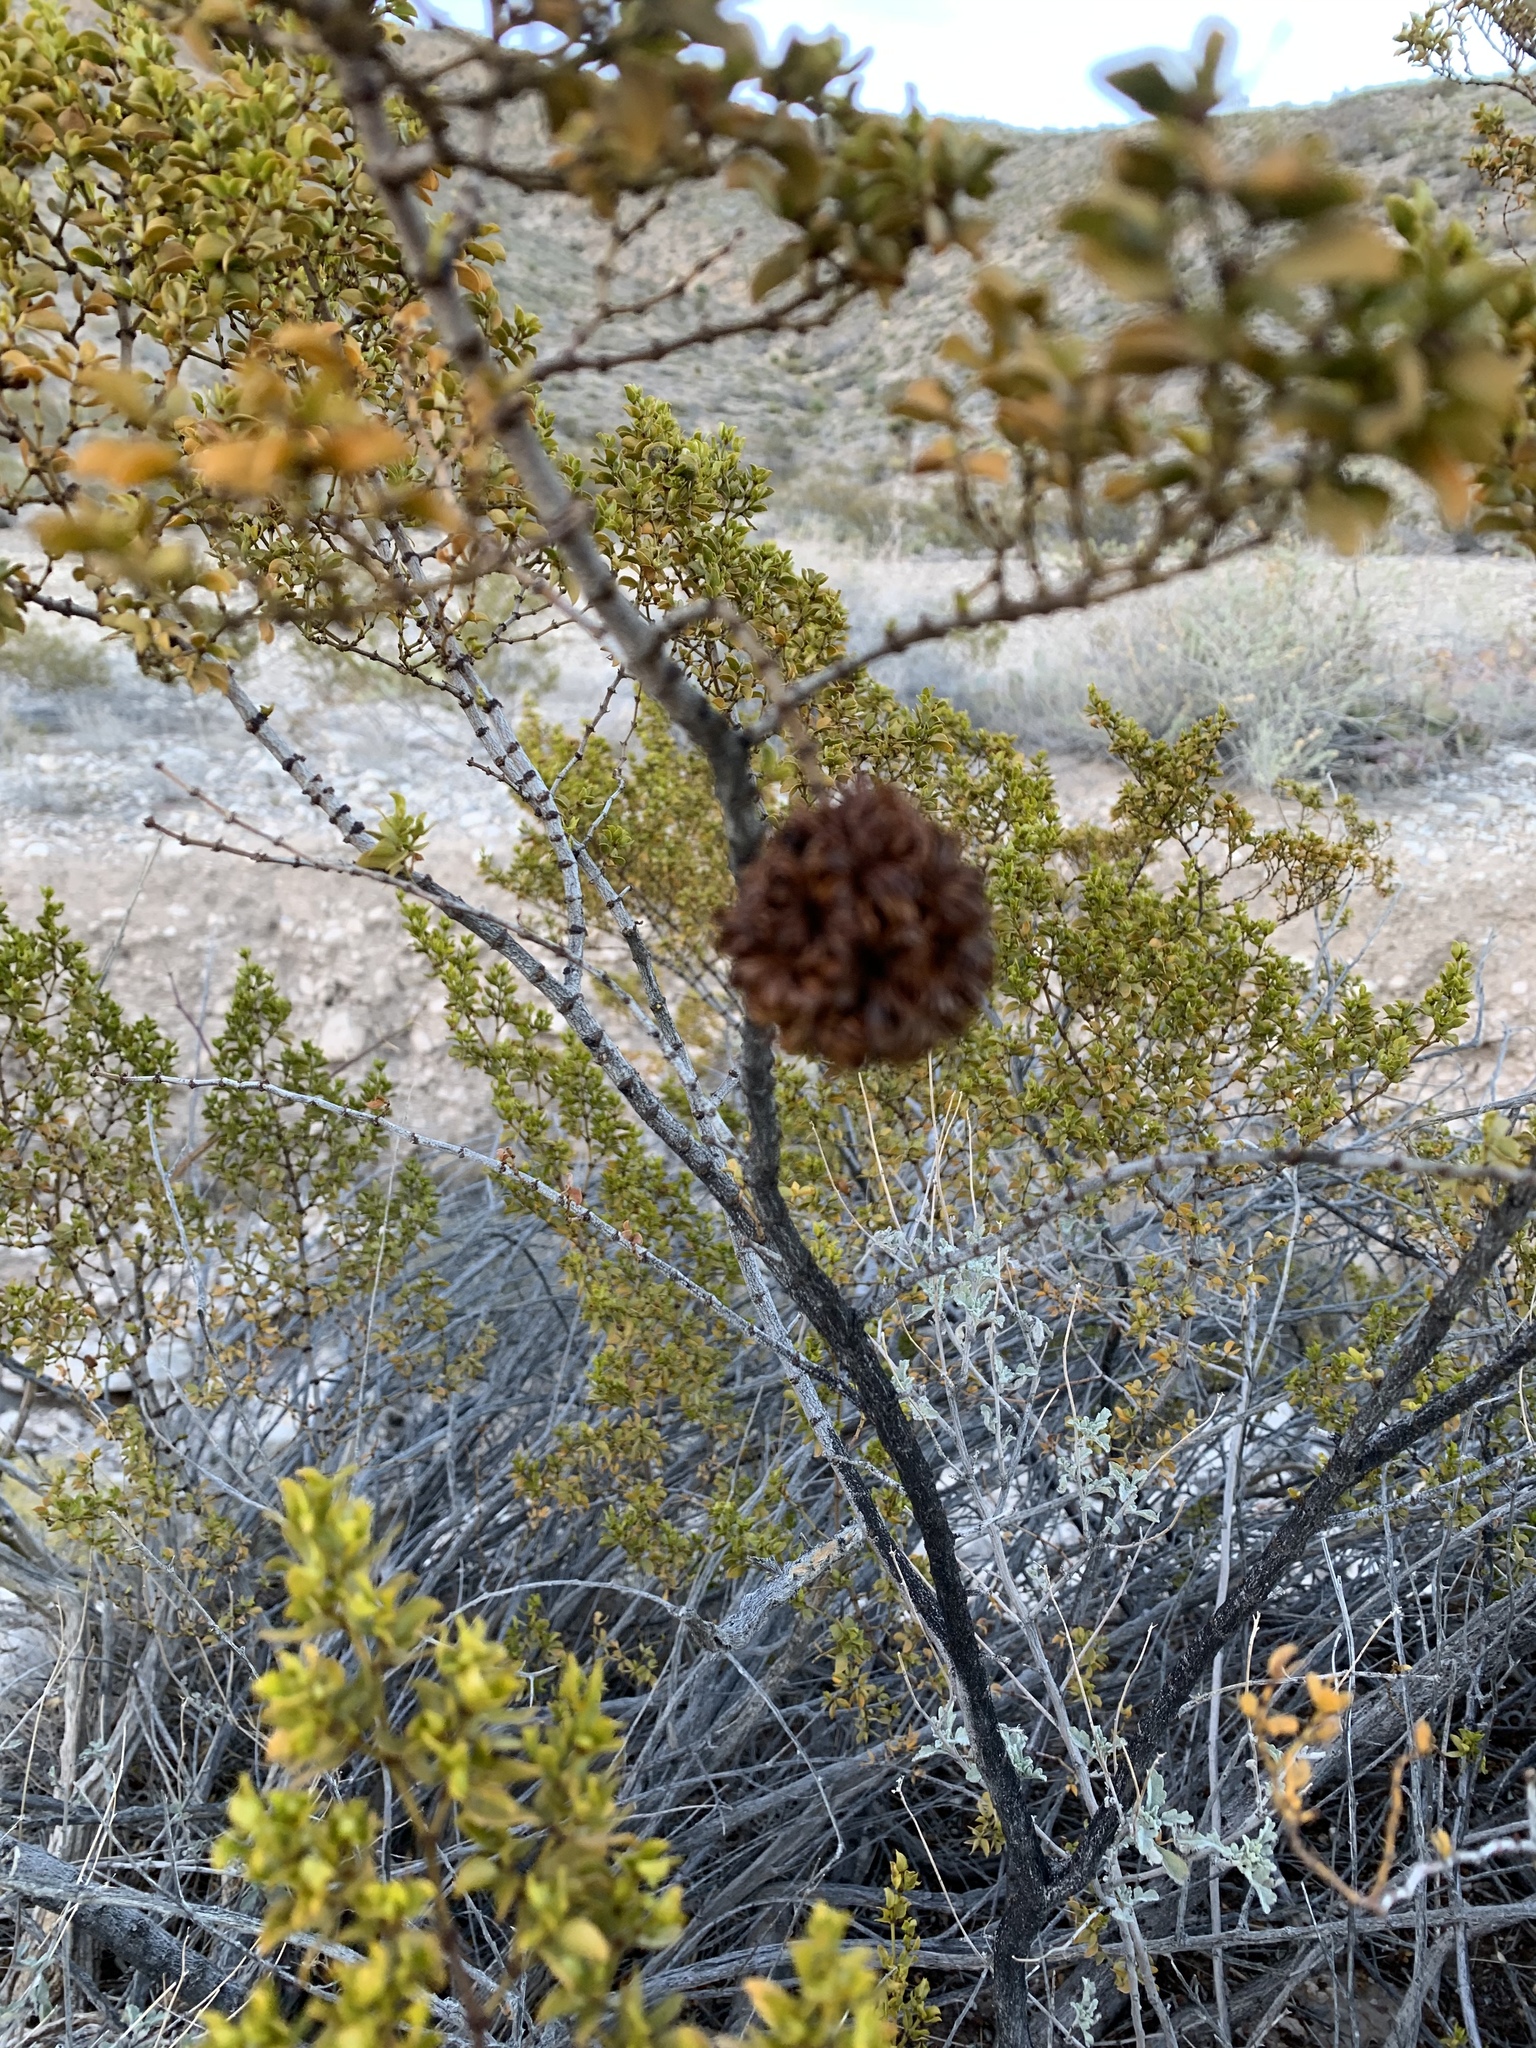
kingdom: Animalia
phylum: Arthropoda
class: Insecta
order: Diptera
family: Cecidomyiidae
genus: Asphondylia
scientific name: Asphondylia auripila
